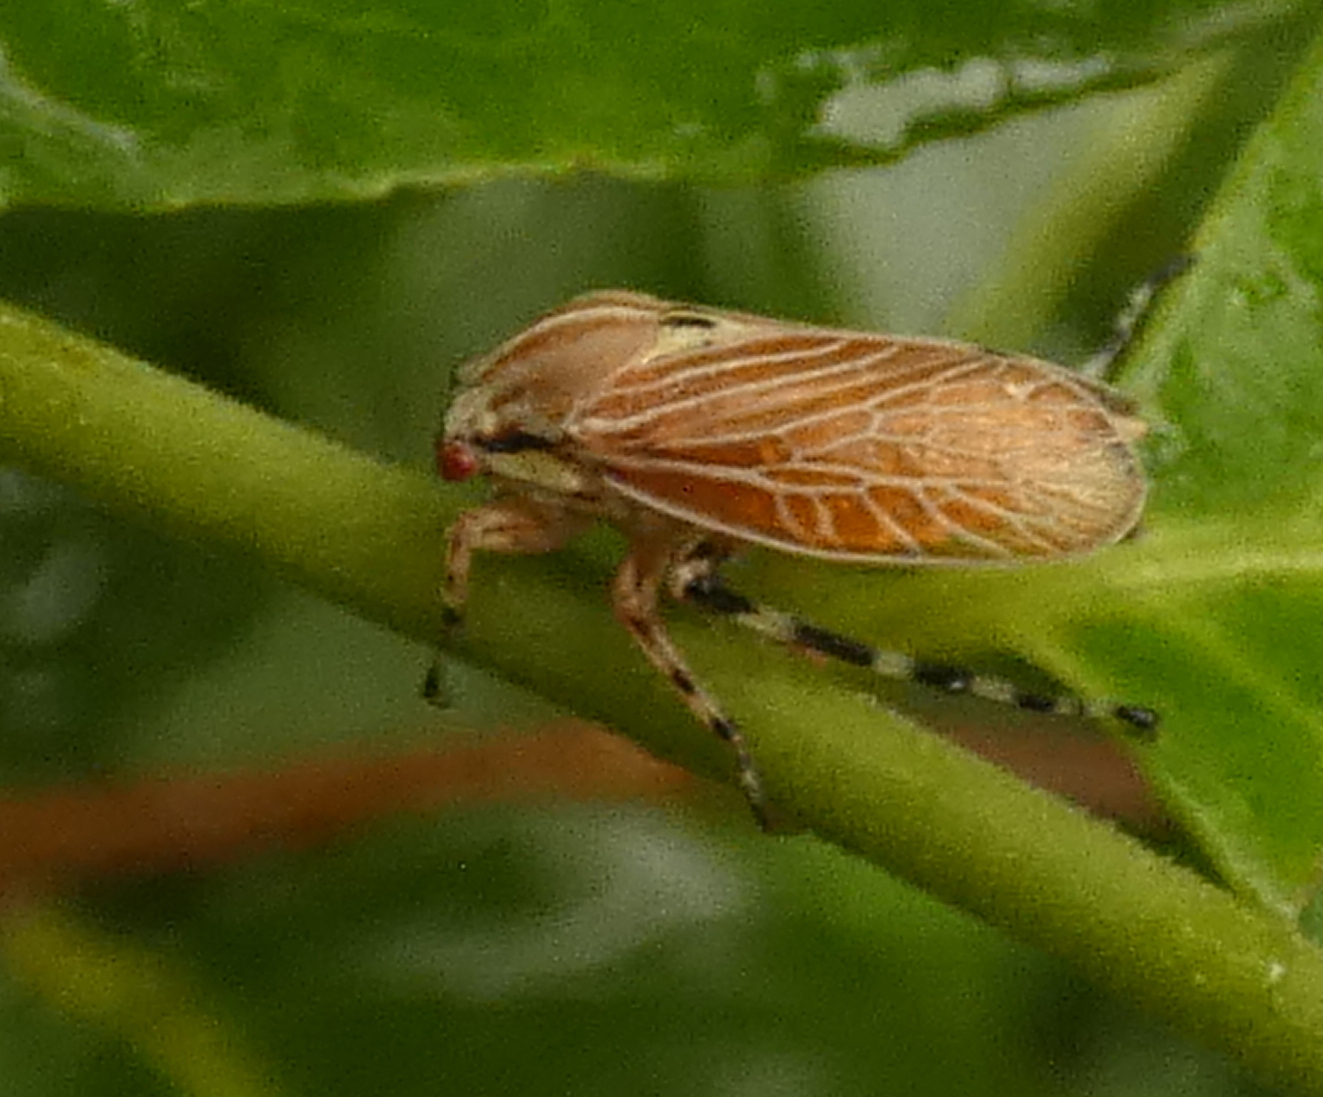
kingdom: Animalia
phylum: Arthropoda
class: Insecta
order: Hemiptera
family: Aetalionidae
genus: Aetalion
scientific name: Aetalion reticulatum
